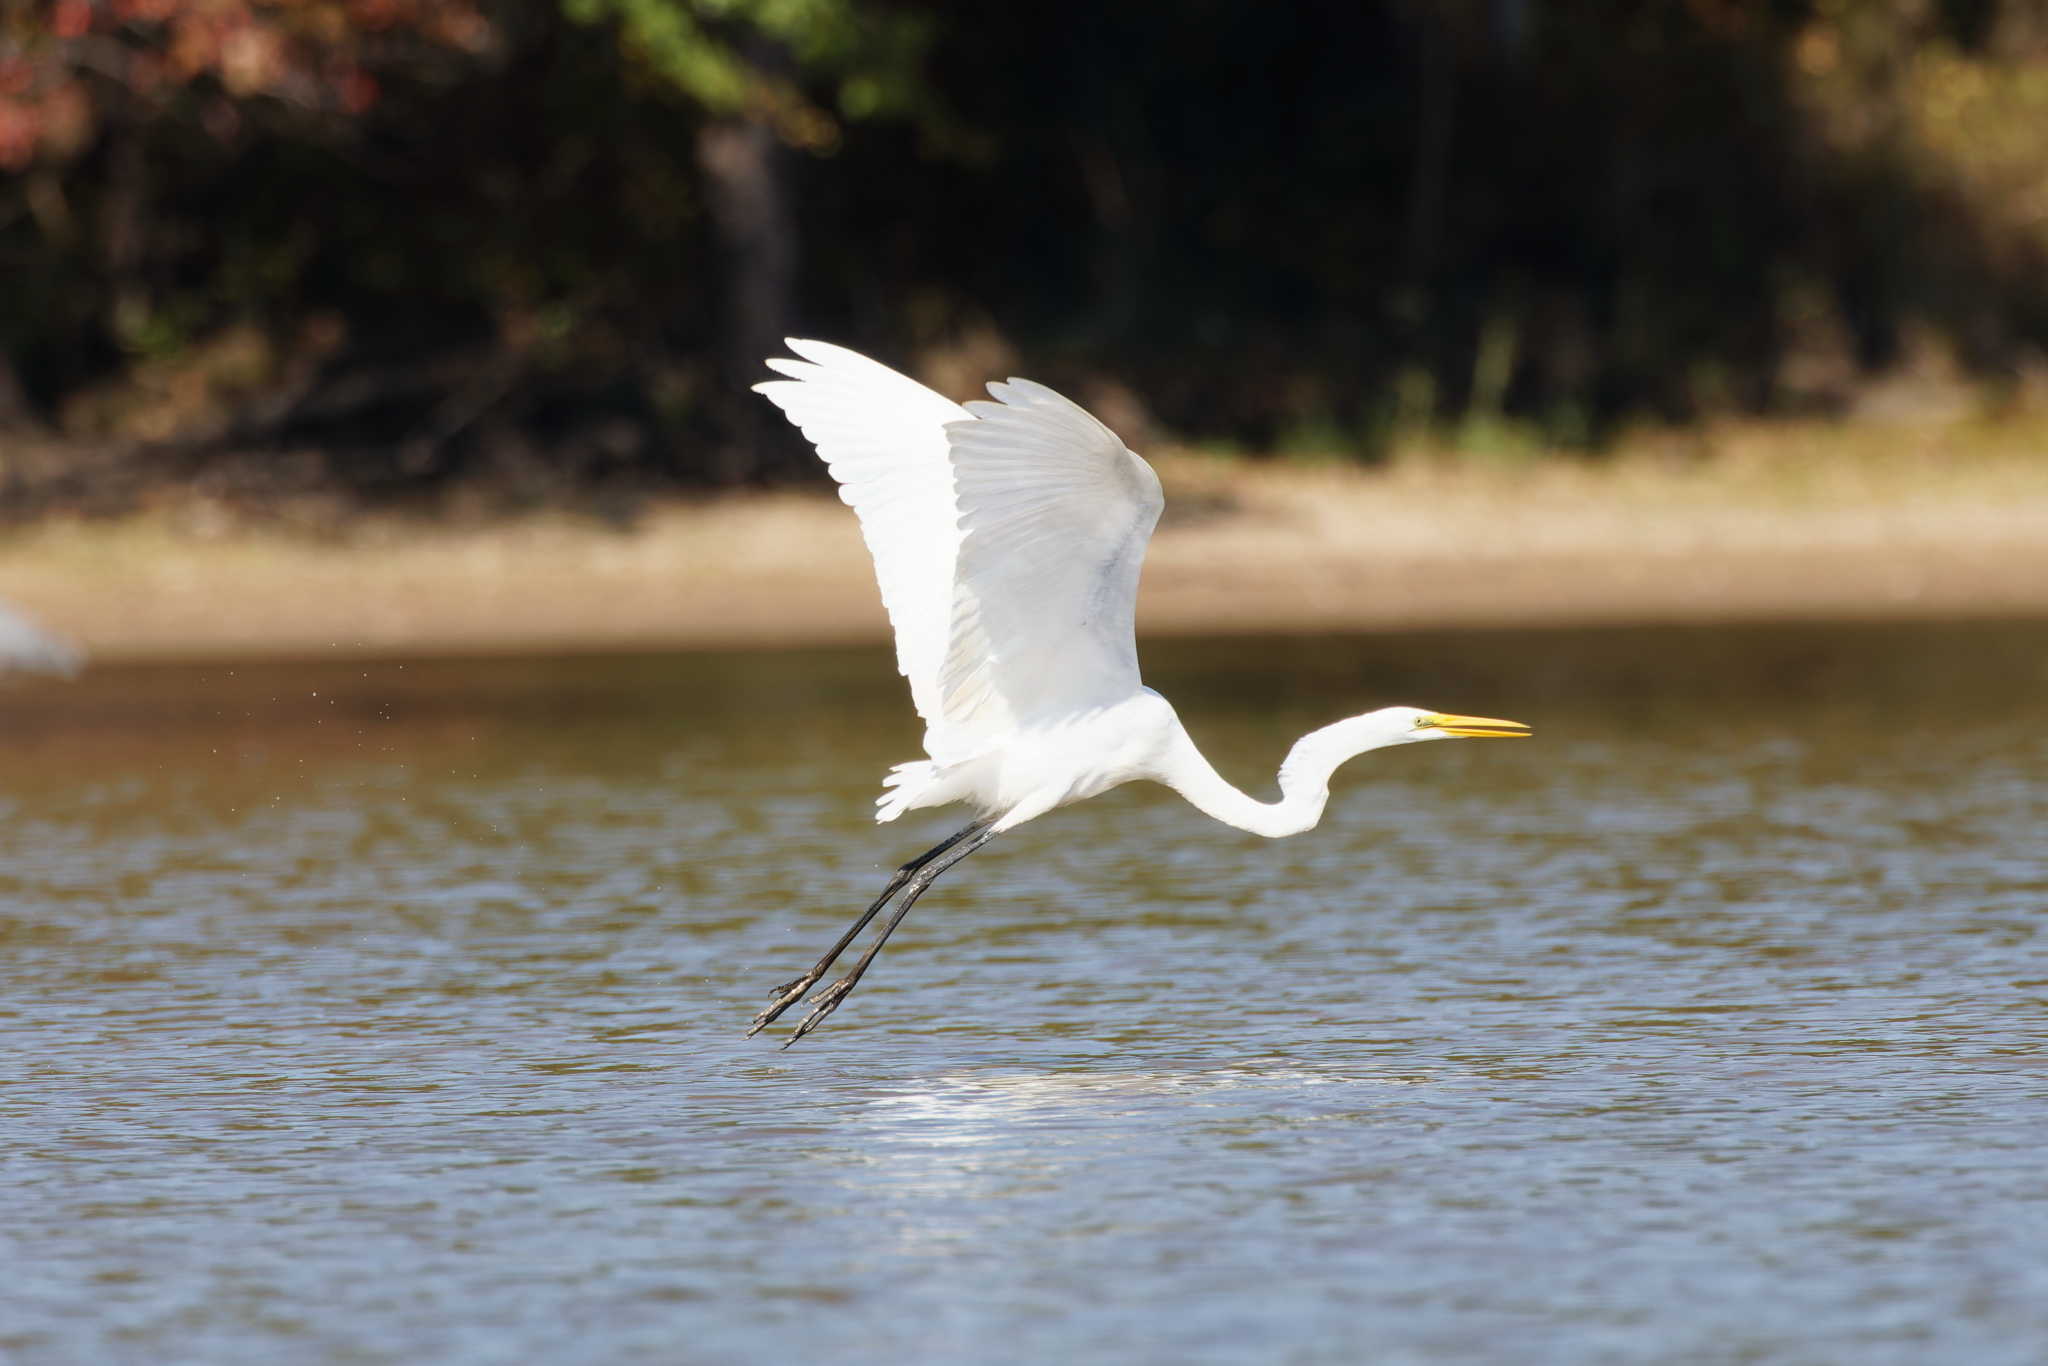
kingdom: Animalia
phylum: Chordata
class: Aves
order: Pelecaniformes
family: Ardeidae
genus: Ardea
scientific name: Ardea alba
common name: Great egret
